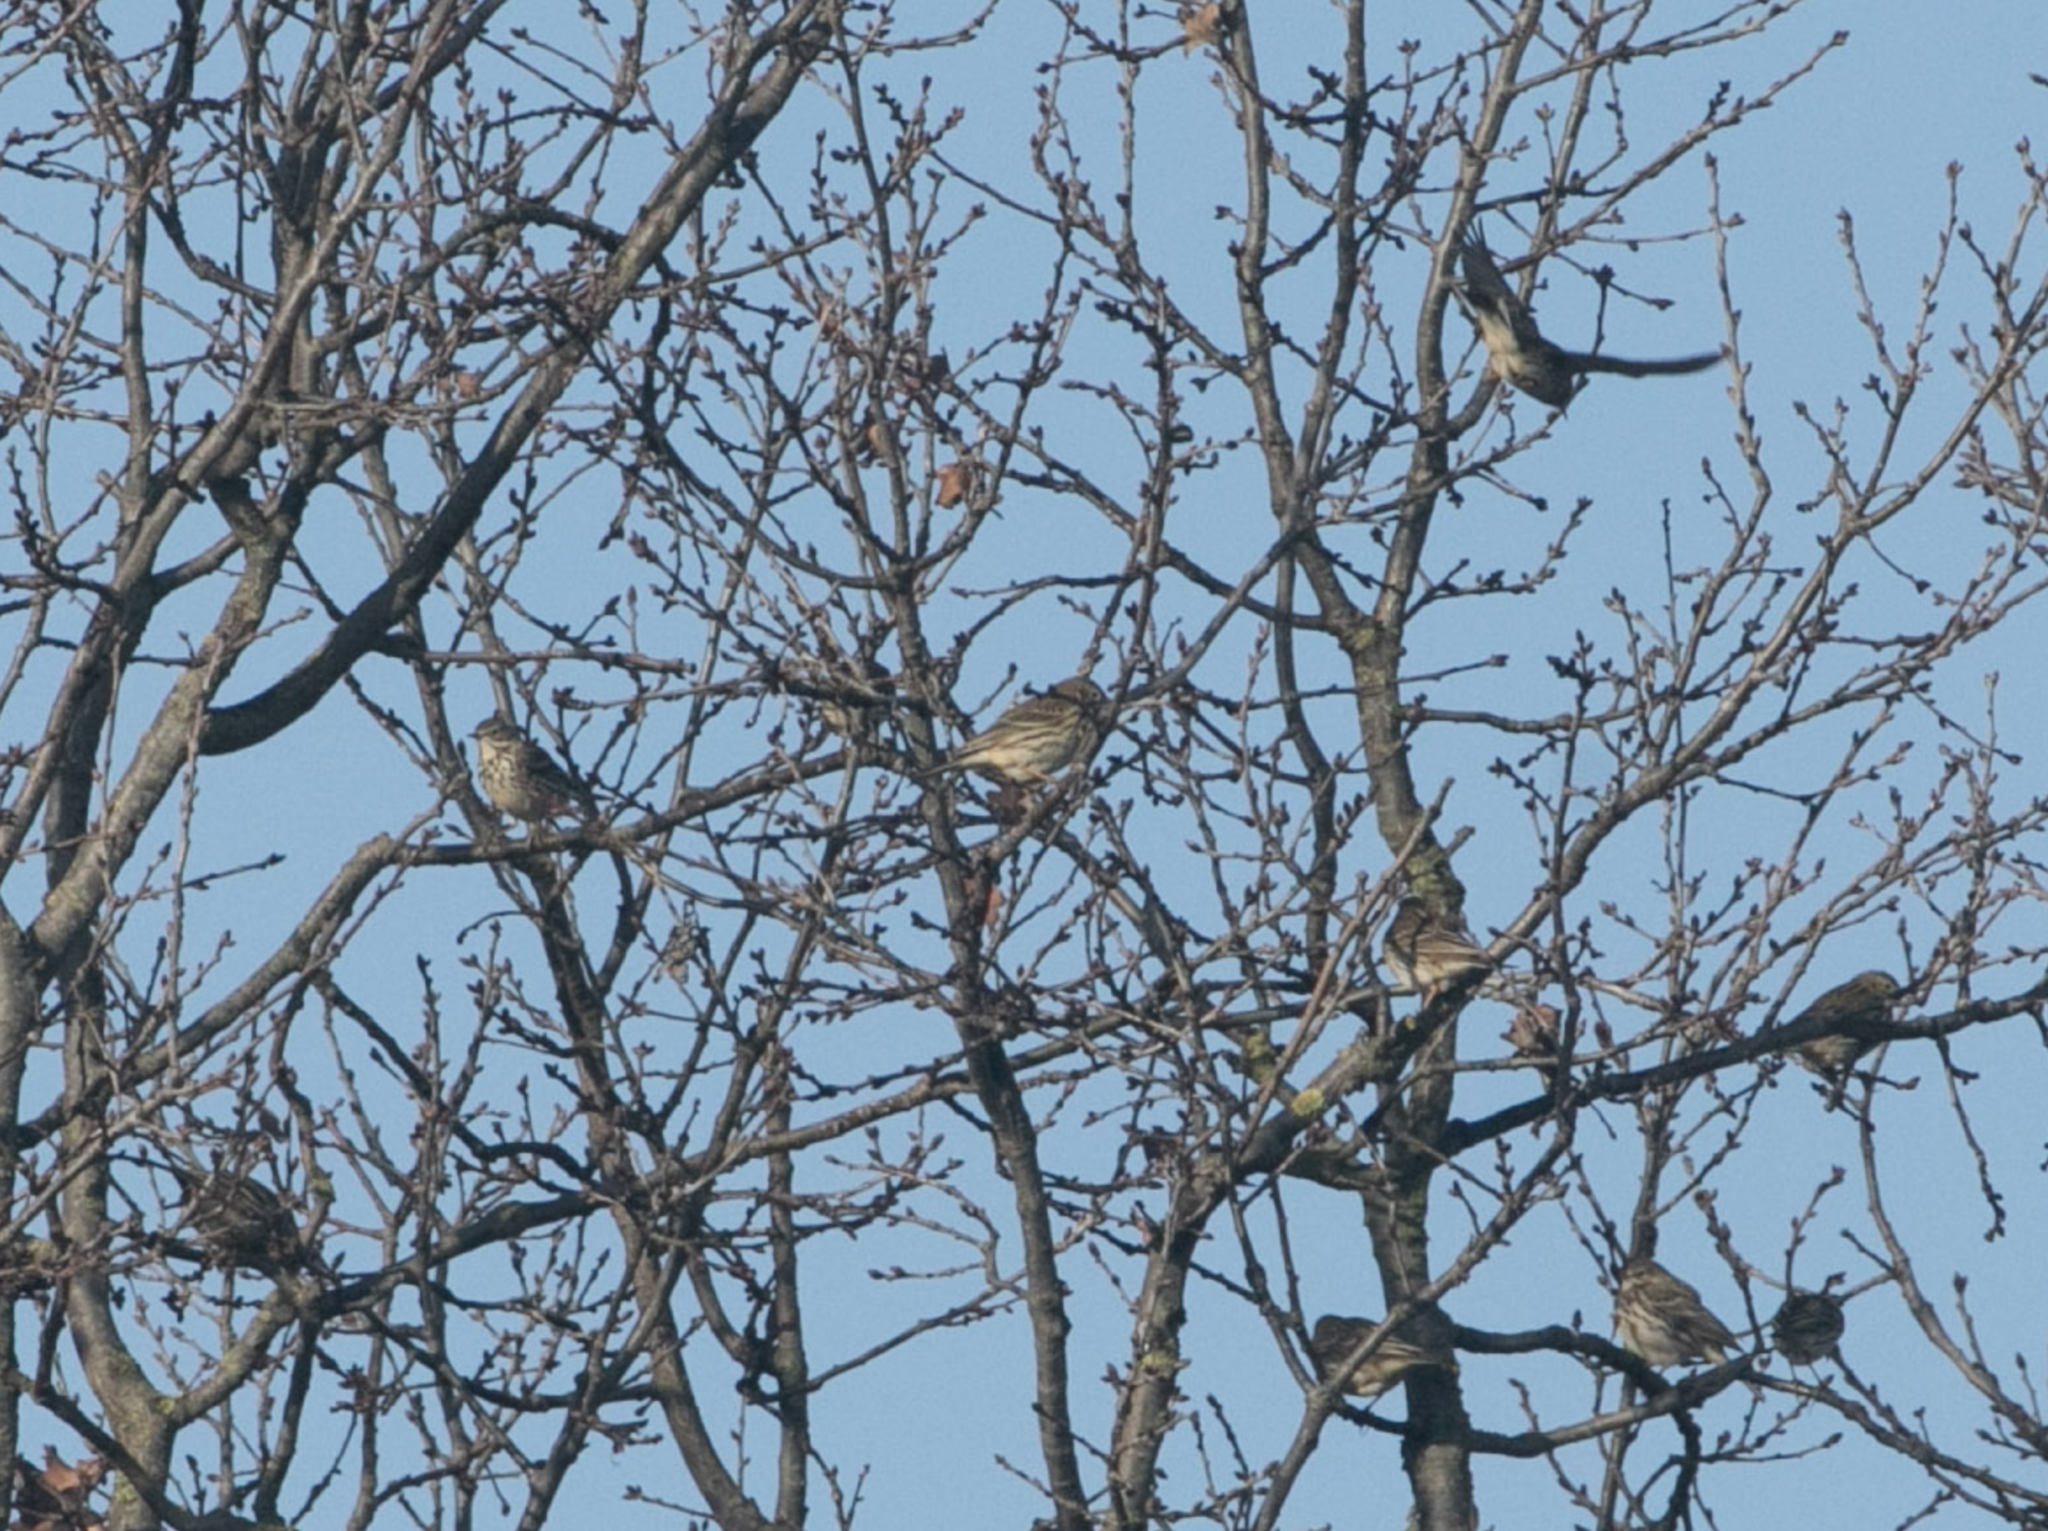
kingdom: Animalia
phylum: Chordata
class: Aves
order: Passeriformes
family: Motacillidae
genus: Anthus
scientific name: Anthus pratensis
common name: Meadow pipit
